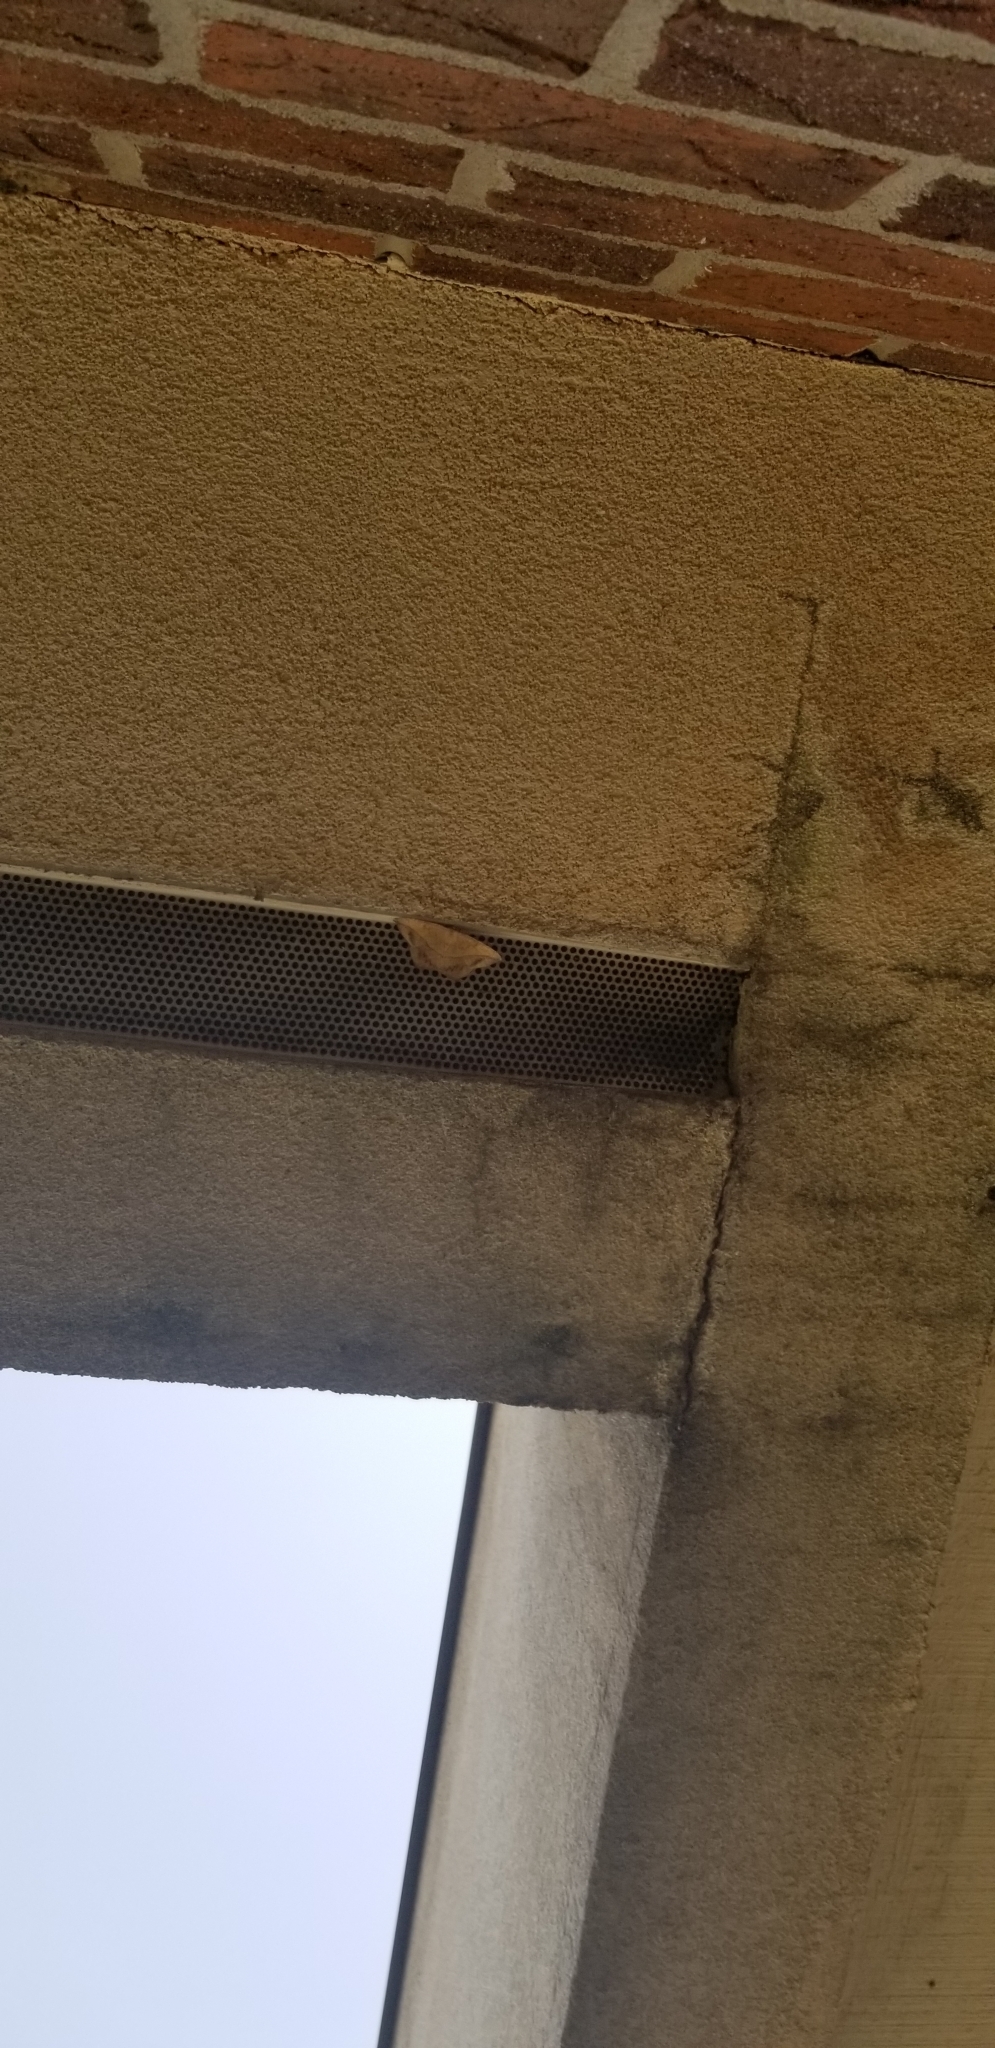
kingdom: Animalia
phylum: Arthropoda
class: Insecta
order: Lepidoptera
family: Geometridae
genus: Prochoerodes
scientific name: Prochoerodes lineola
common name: Large maple spanworm
